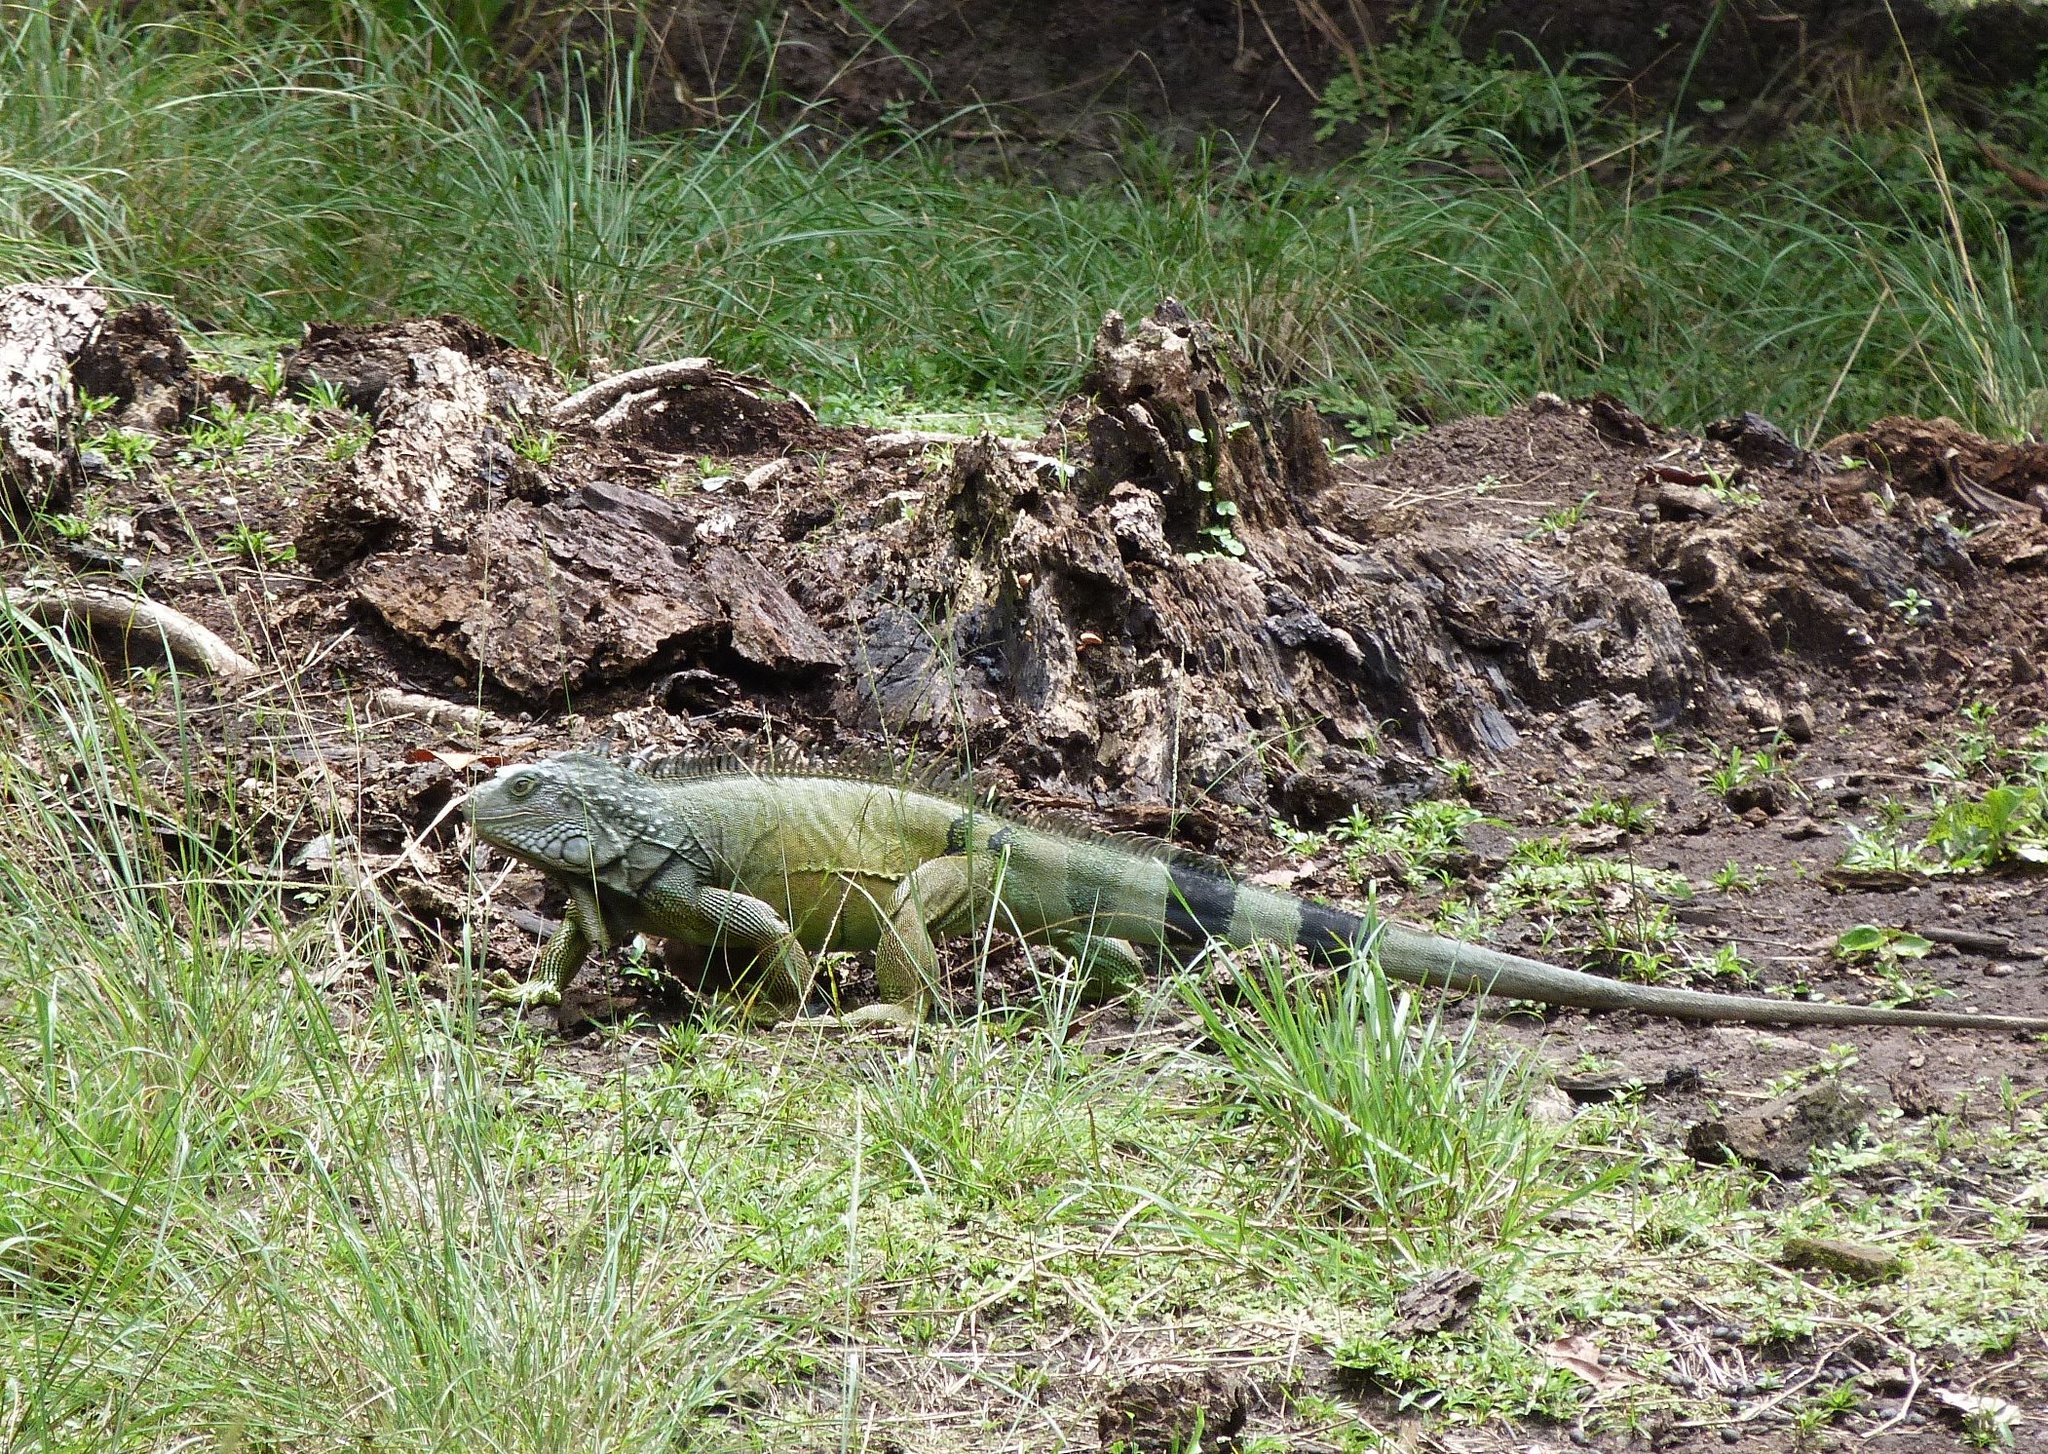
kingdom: Animalia
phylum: Chordata
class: Squamata
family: Iguanidae
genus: Iguana
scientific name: Iguana iguana
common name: Green iguana
